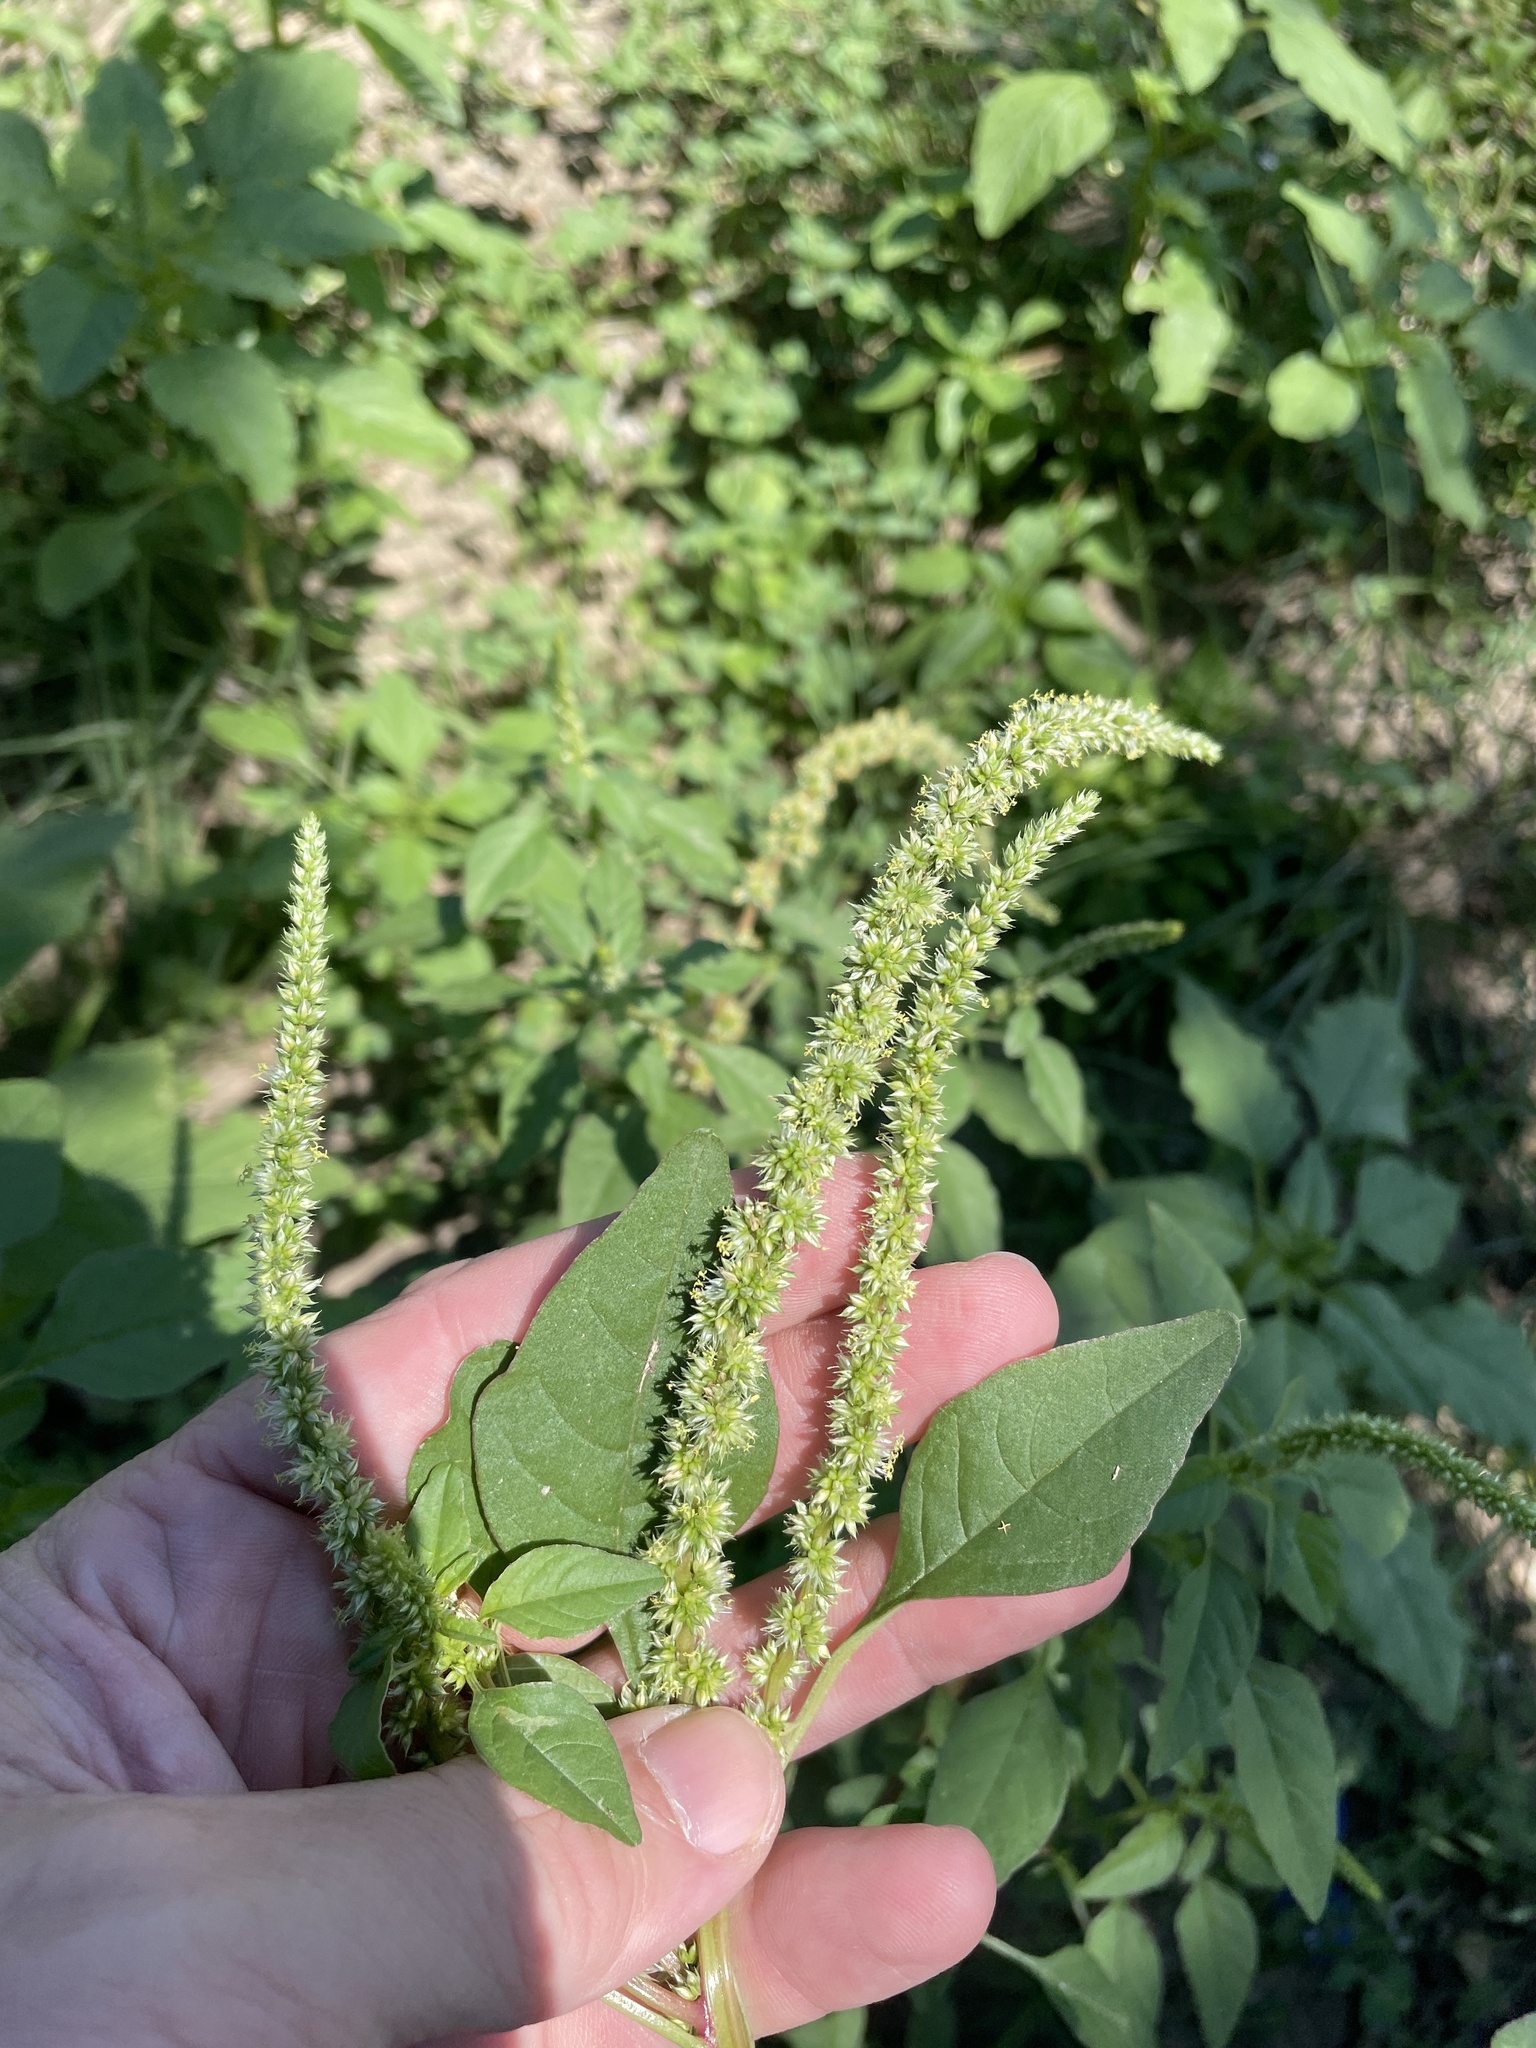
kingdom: Plantae
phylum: Tracheophyta
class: Magnoliopsida
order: Caryophyllales
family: Amaranthaceae
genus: Amaranthus
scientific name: Amaranthus palmeri
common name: Dioecious amaranth
